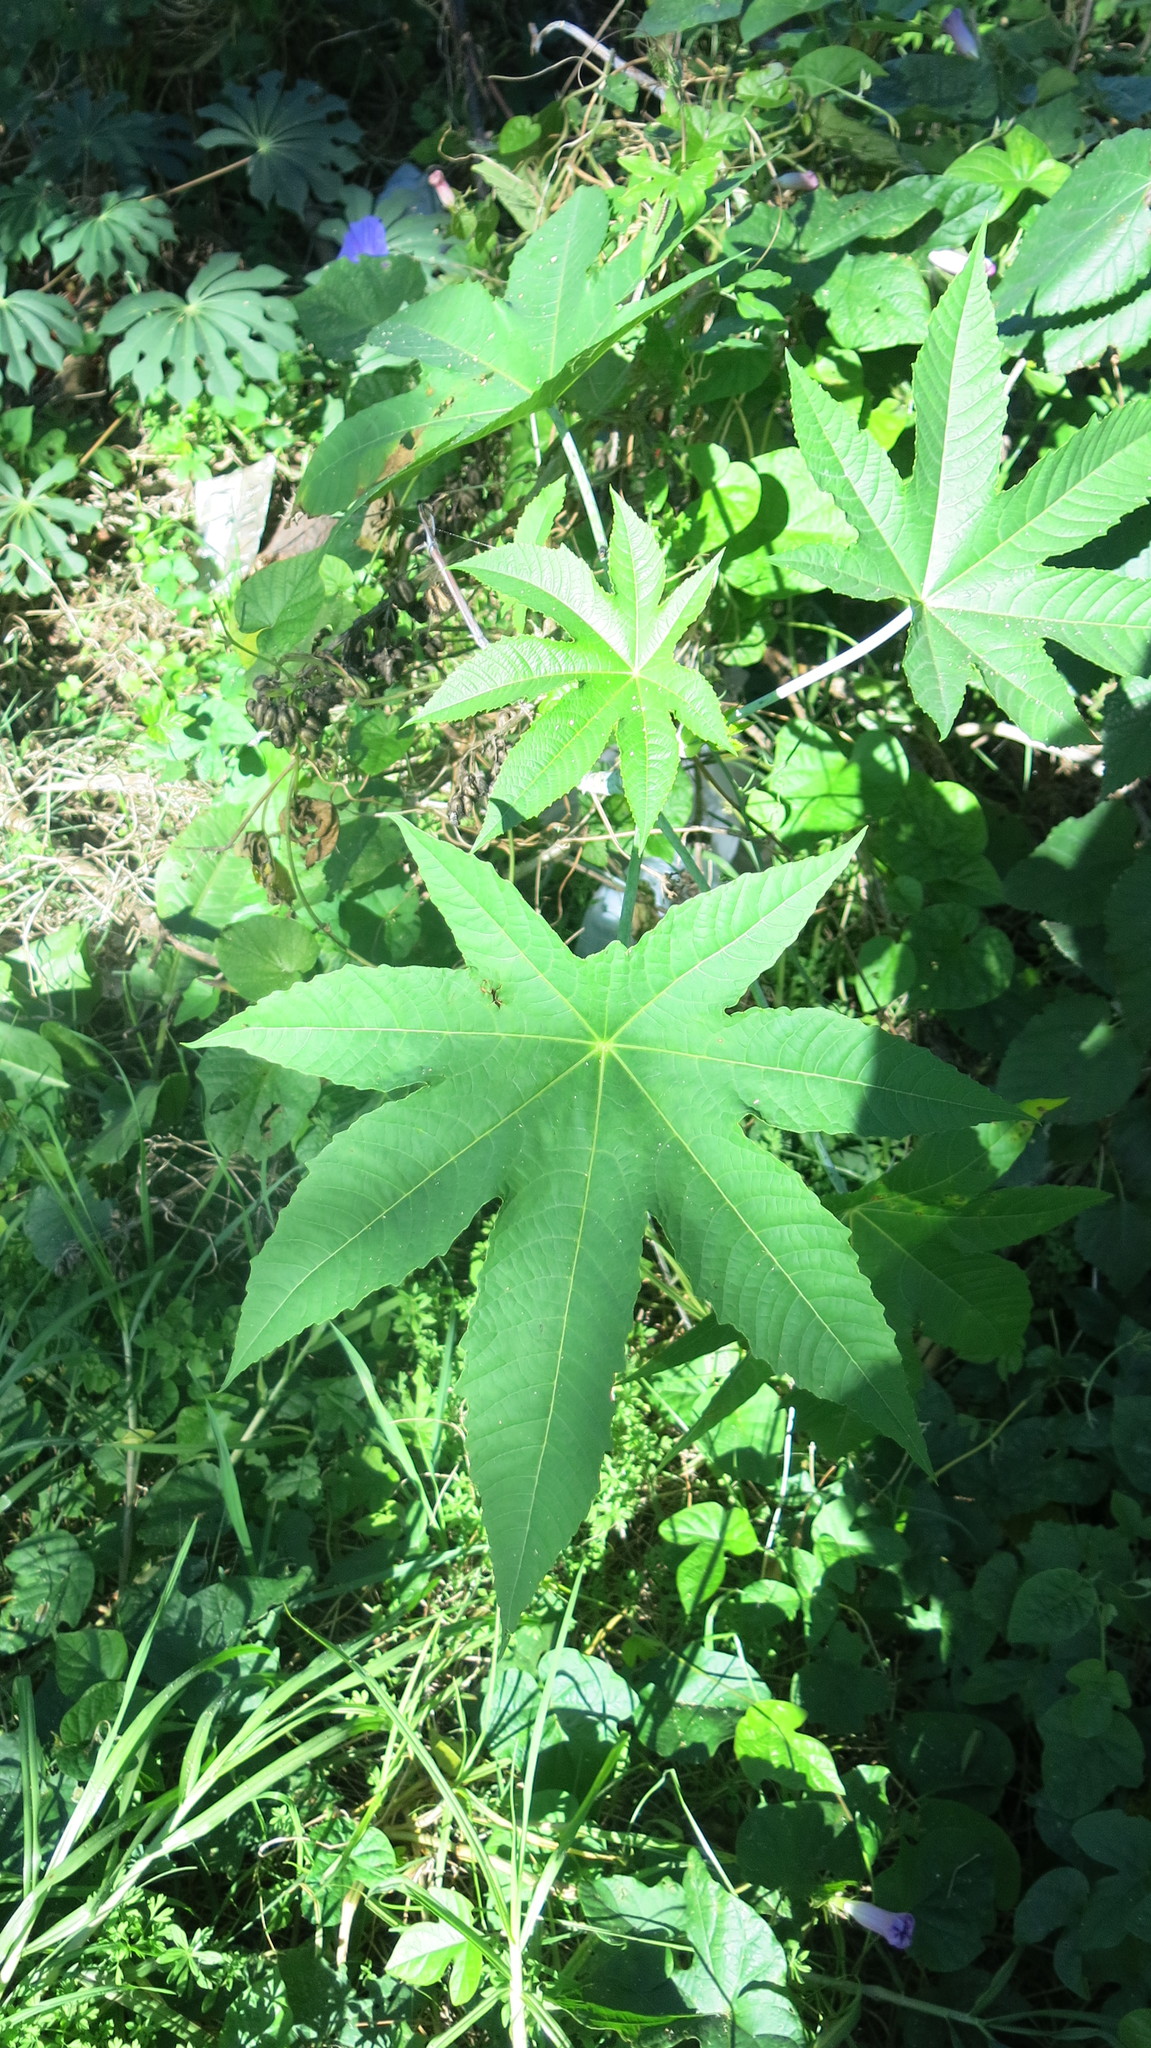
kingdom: Plantae
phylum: Tracheophyta
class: Magnoliopsida
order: Malpighiales
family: Euphorbiaceae
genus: Ricinus
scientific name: Ricinus communis
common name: Castor-oil-plant
